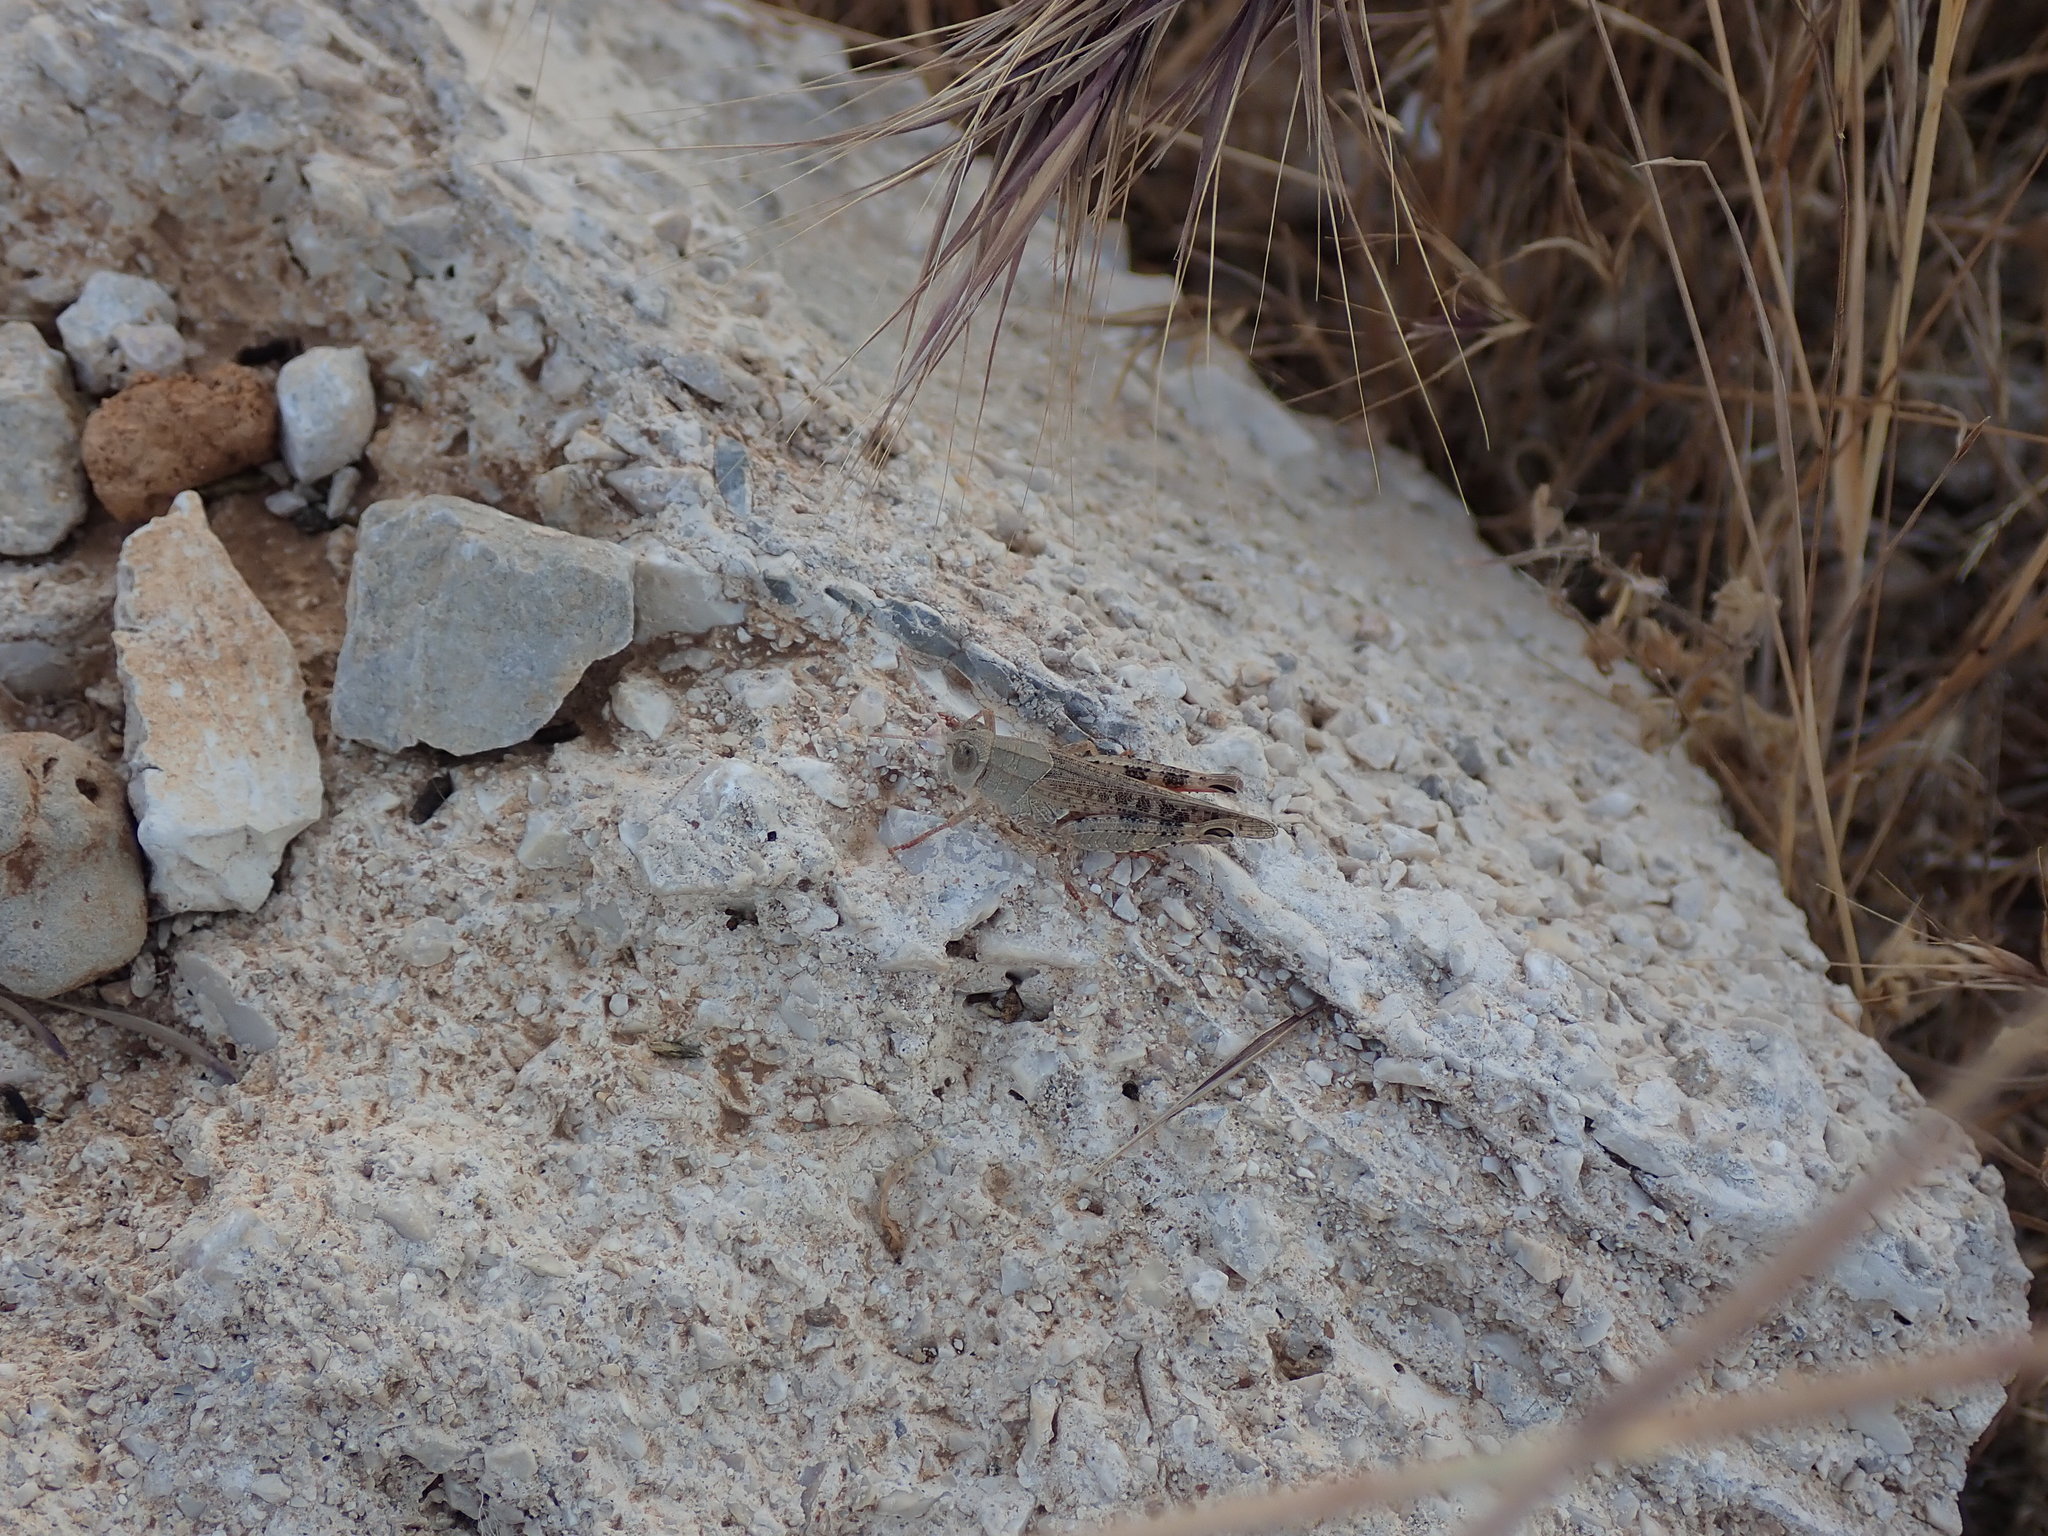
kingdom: Animalia
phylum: Arthropoda
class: Insecta
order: Orthoptera
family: Acrididae
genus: Calliptamus
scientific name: Calliptamus italicus
